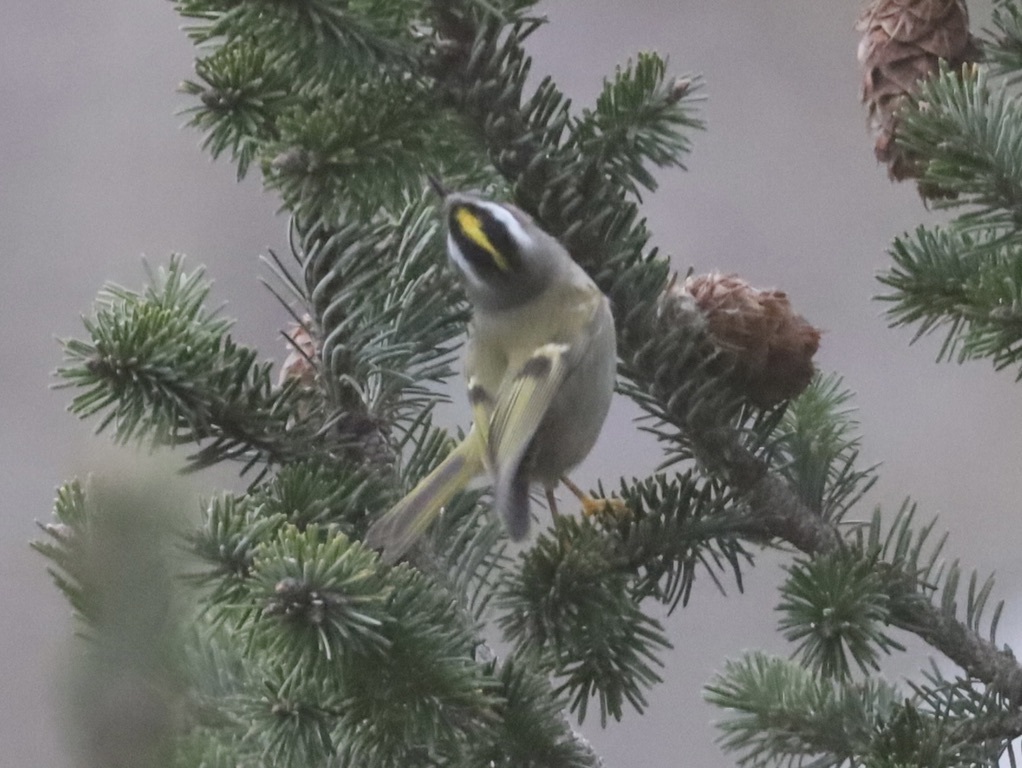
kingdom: Animalia
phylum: Chordata
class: Aves
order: Passeriformes
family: Regulidae
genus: Regulus
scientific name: Regulus satrapa
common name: Golden-crowned kinglet
